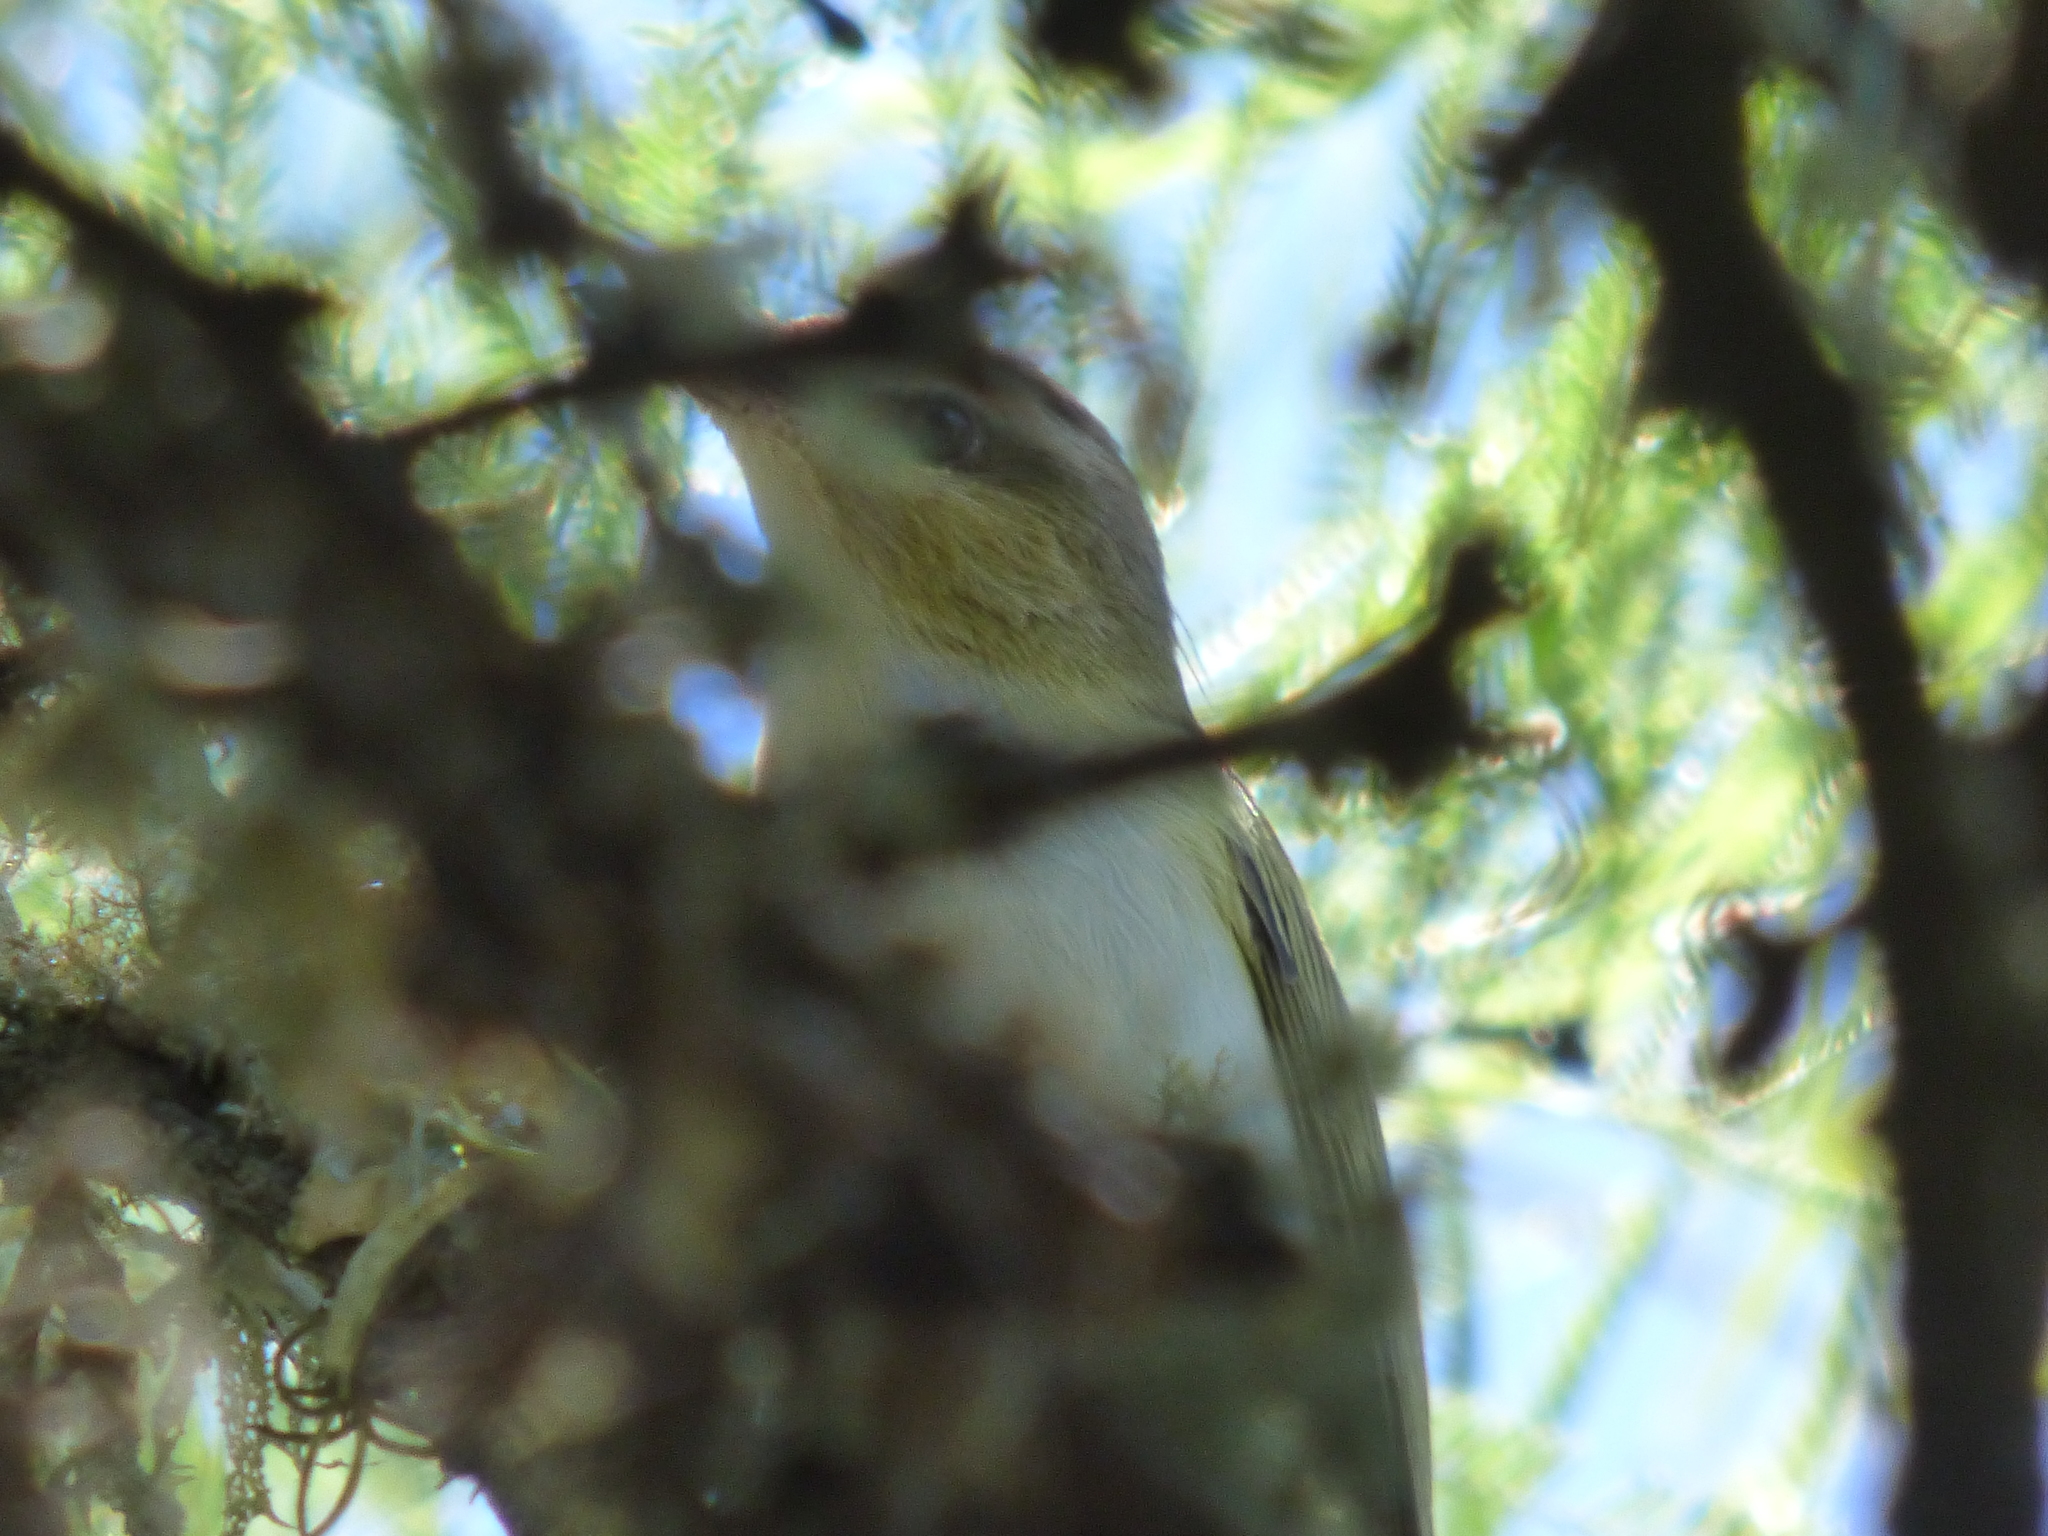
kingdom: Animalia
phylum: Chordata
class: Aves
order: Passeriformes
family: Vireonidae
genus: Vireo
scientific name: Vireo olivaceus
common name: Red-eyed vireo
